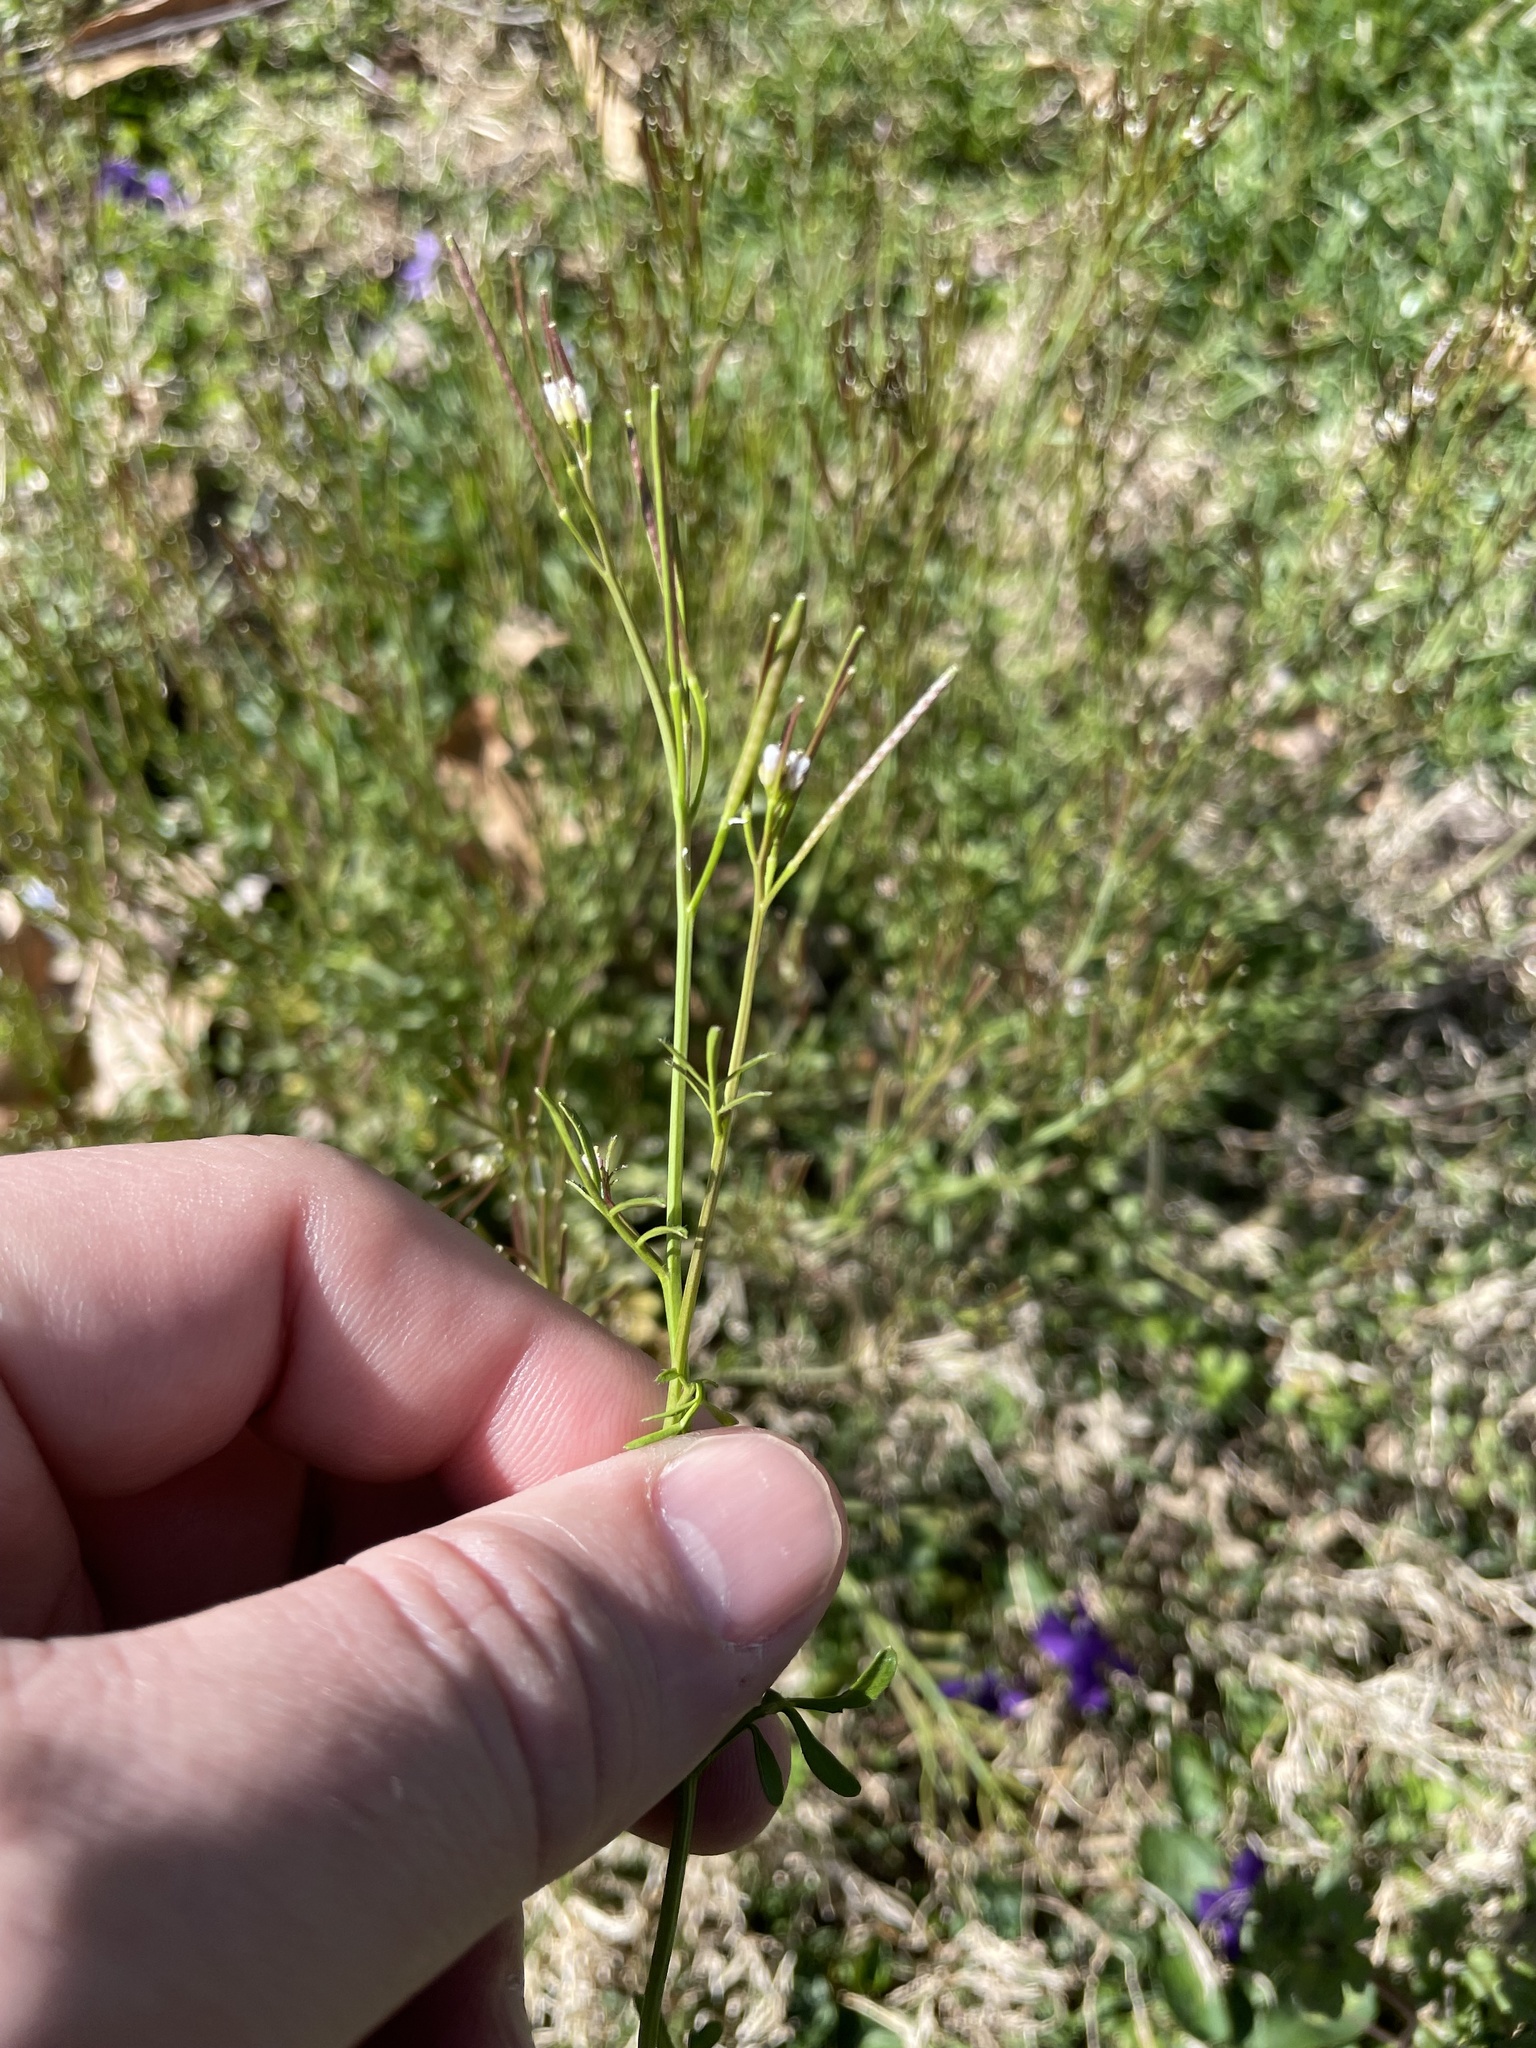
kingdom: Plantae
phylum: Tracheophyta
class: Magnoliopsida
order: Brassicales
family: Brassicaceae
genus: Cardamine
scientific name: Cardamine hirsuta
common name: Hairy bittercress
